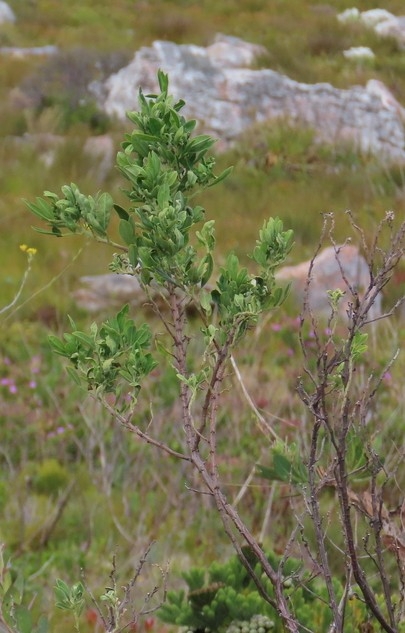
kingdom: Plantae
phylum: Tracheophyta
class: Magnoliopsida
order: Fabales
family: Fabaceae
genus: Indigofera
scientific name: Indigofera cytisoides
